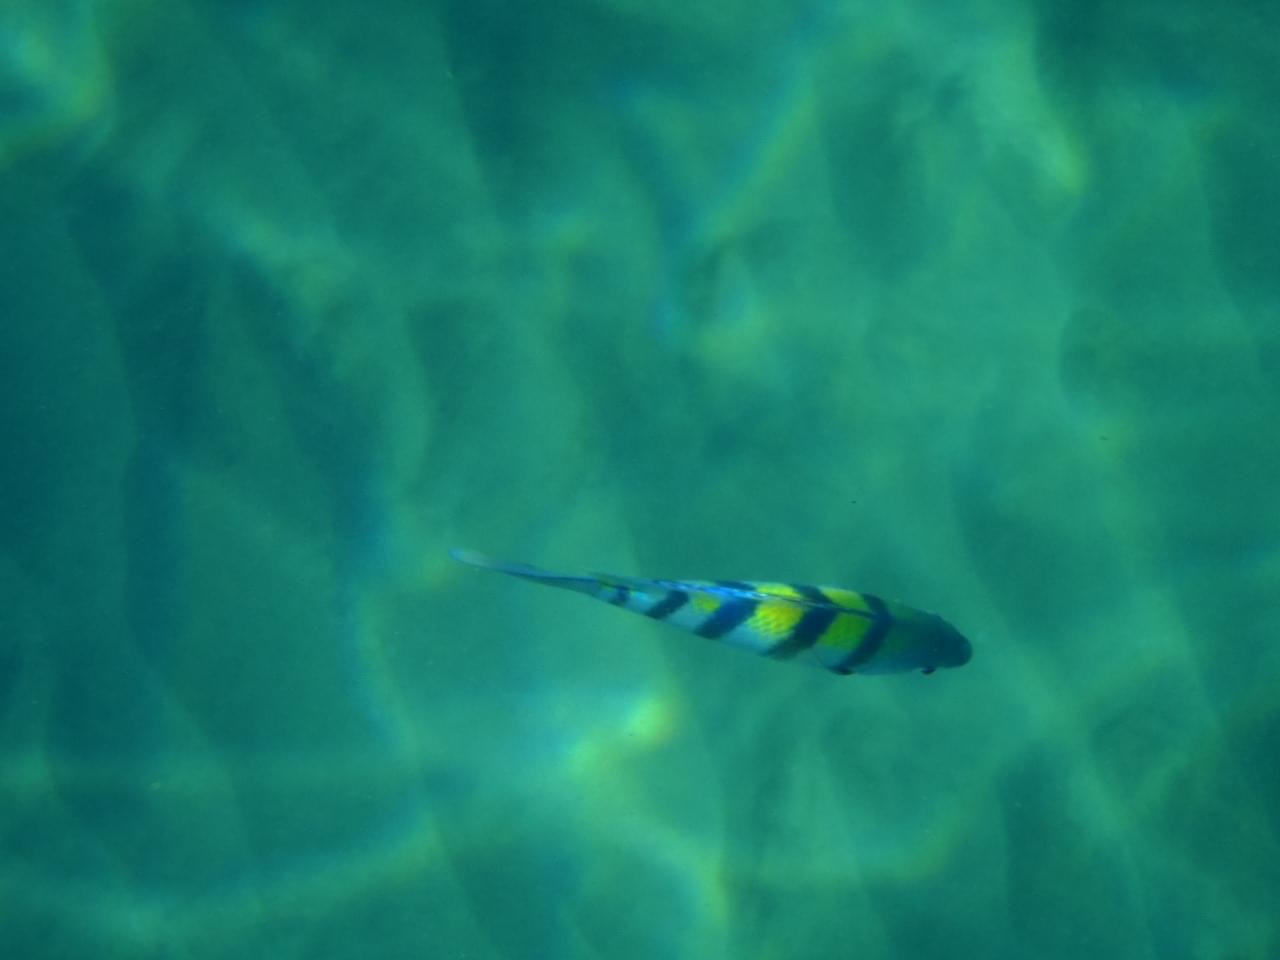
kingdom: Animalia
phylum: Chordata
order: Perciformes
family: Pomacentridae
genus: Abudefduf
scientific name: Abudefduf vaigiensis
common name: Indo-pacific sergeant
